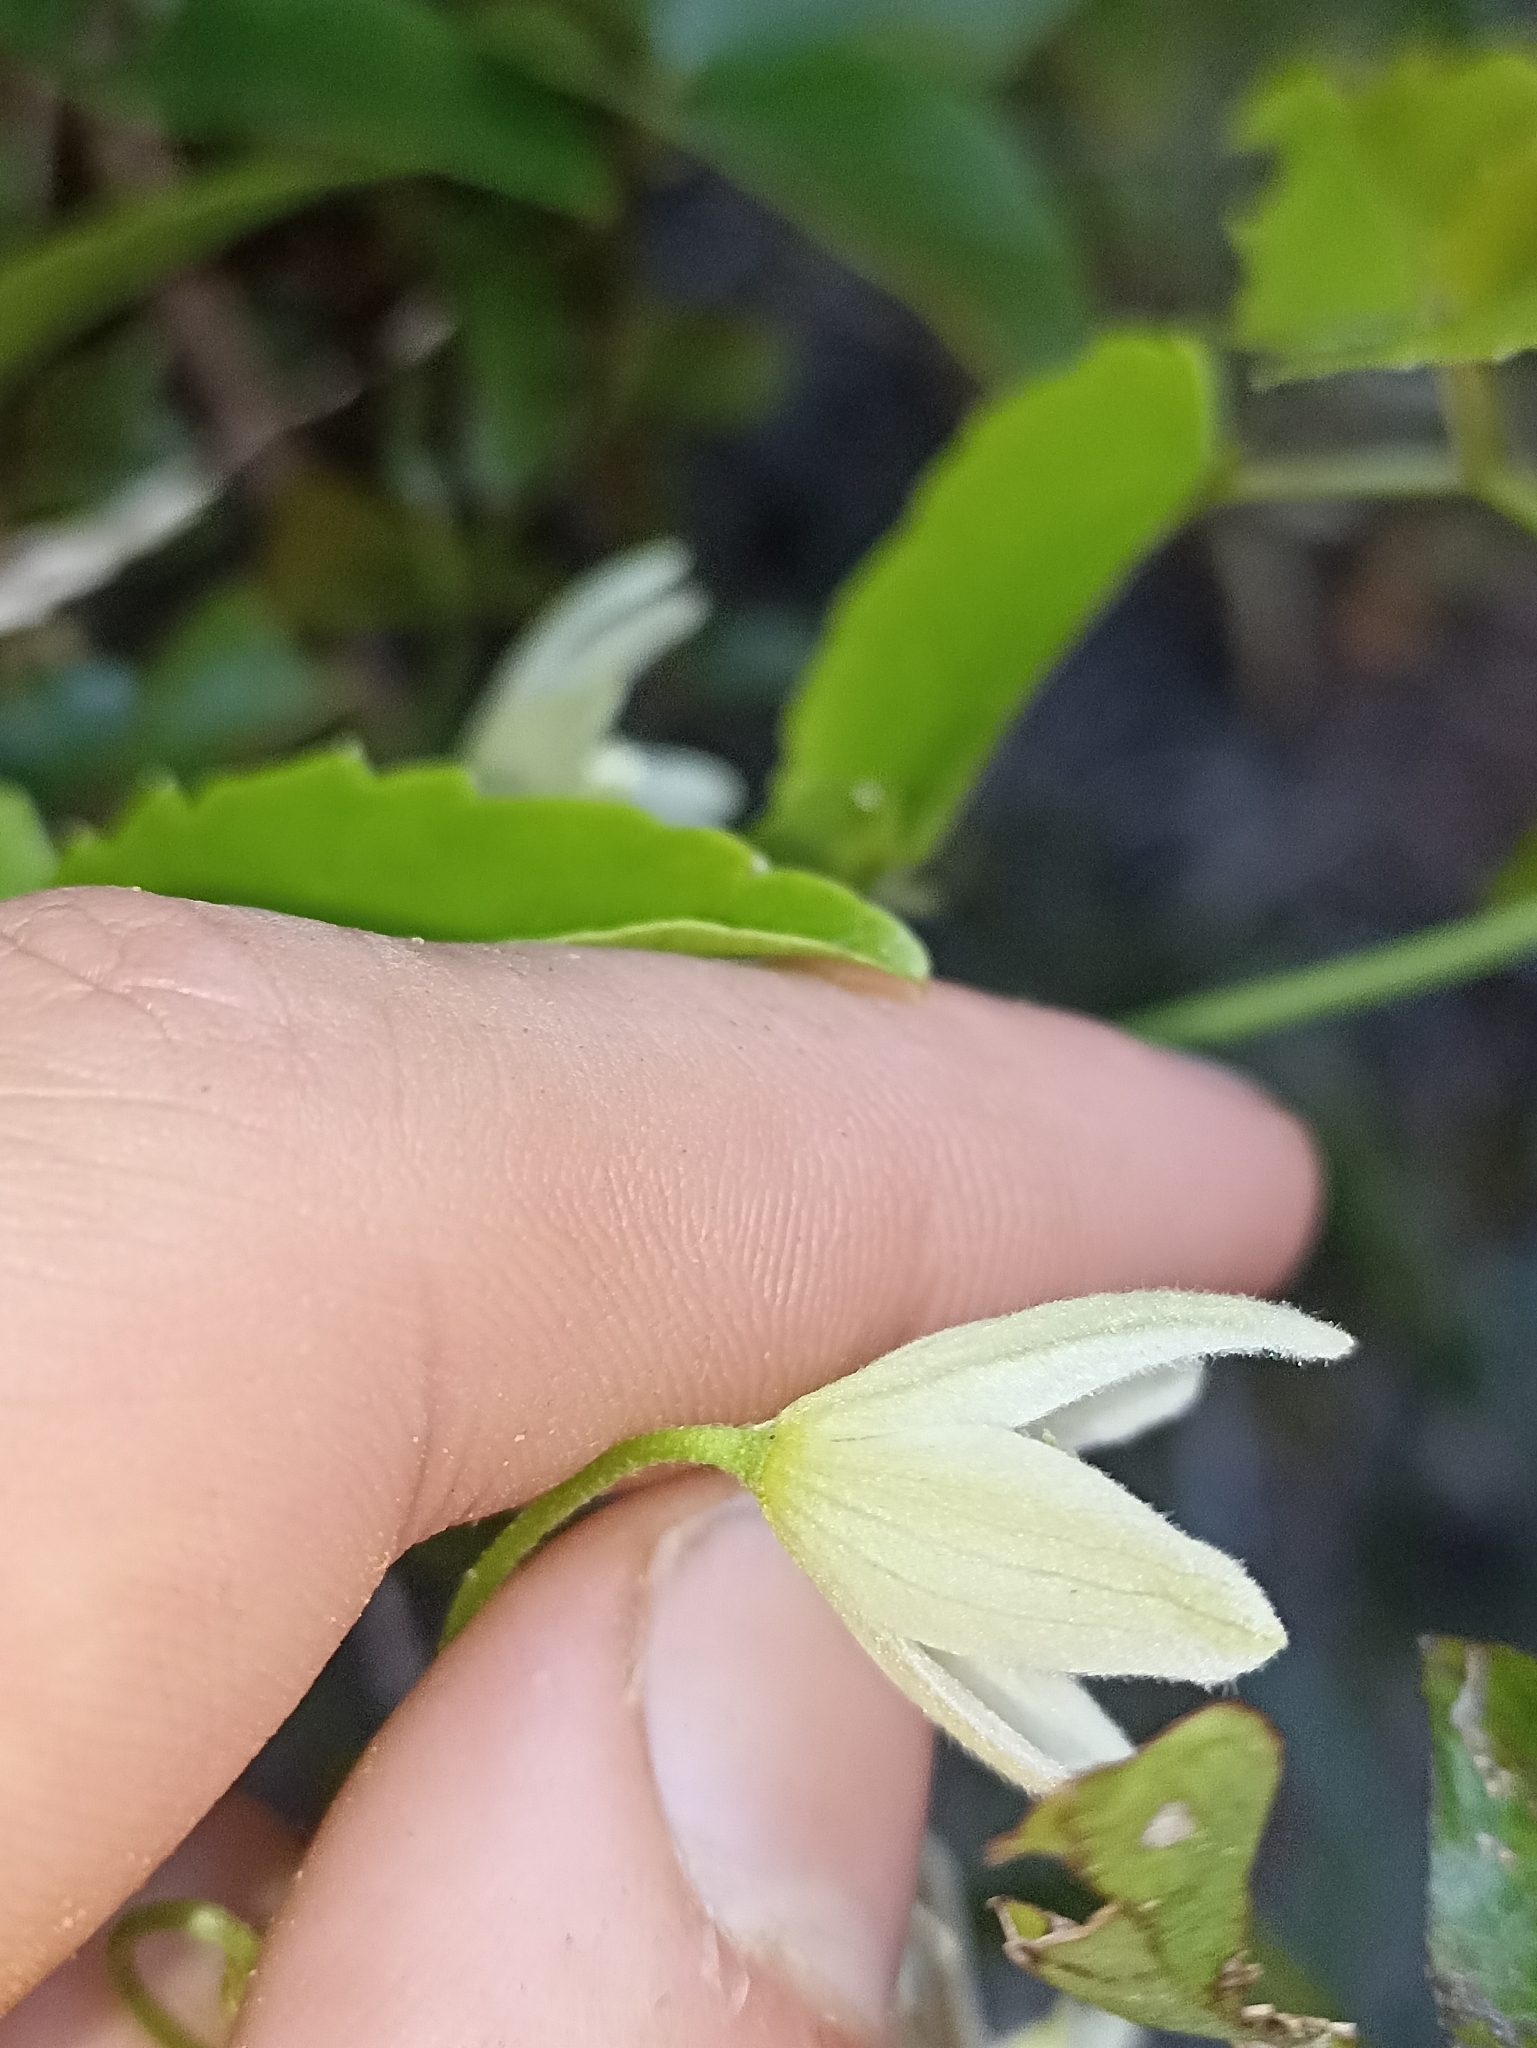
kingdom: Plantae
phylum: Tracheophyta
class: Magnoliopsida
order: Ranunculales
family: Ranunculaceae
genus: Clematis
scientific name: Clematis forsteri
